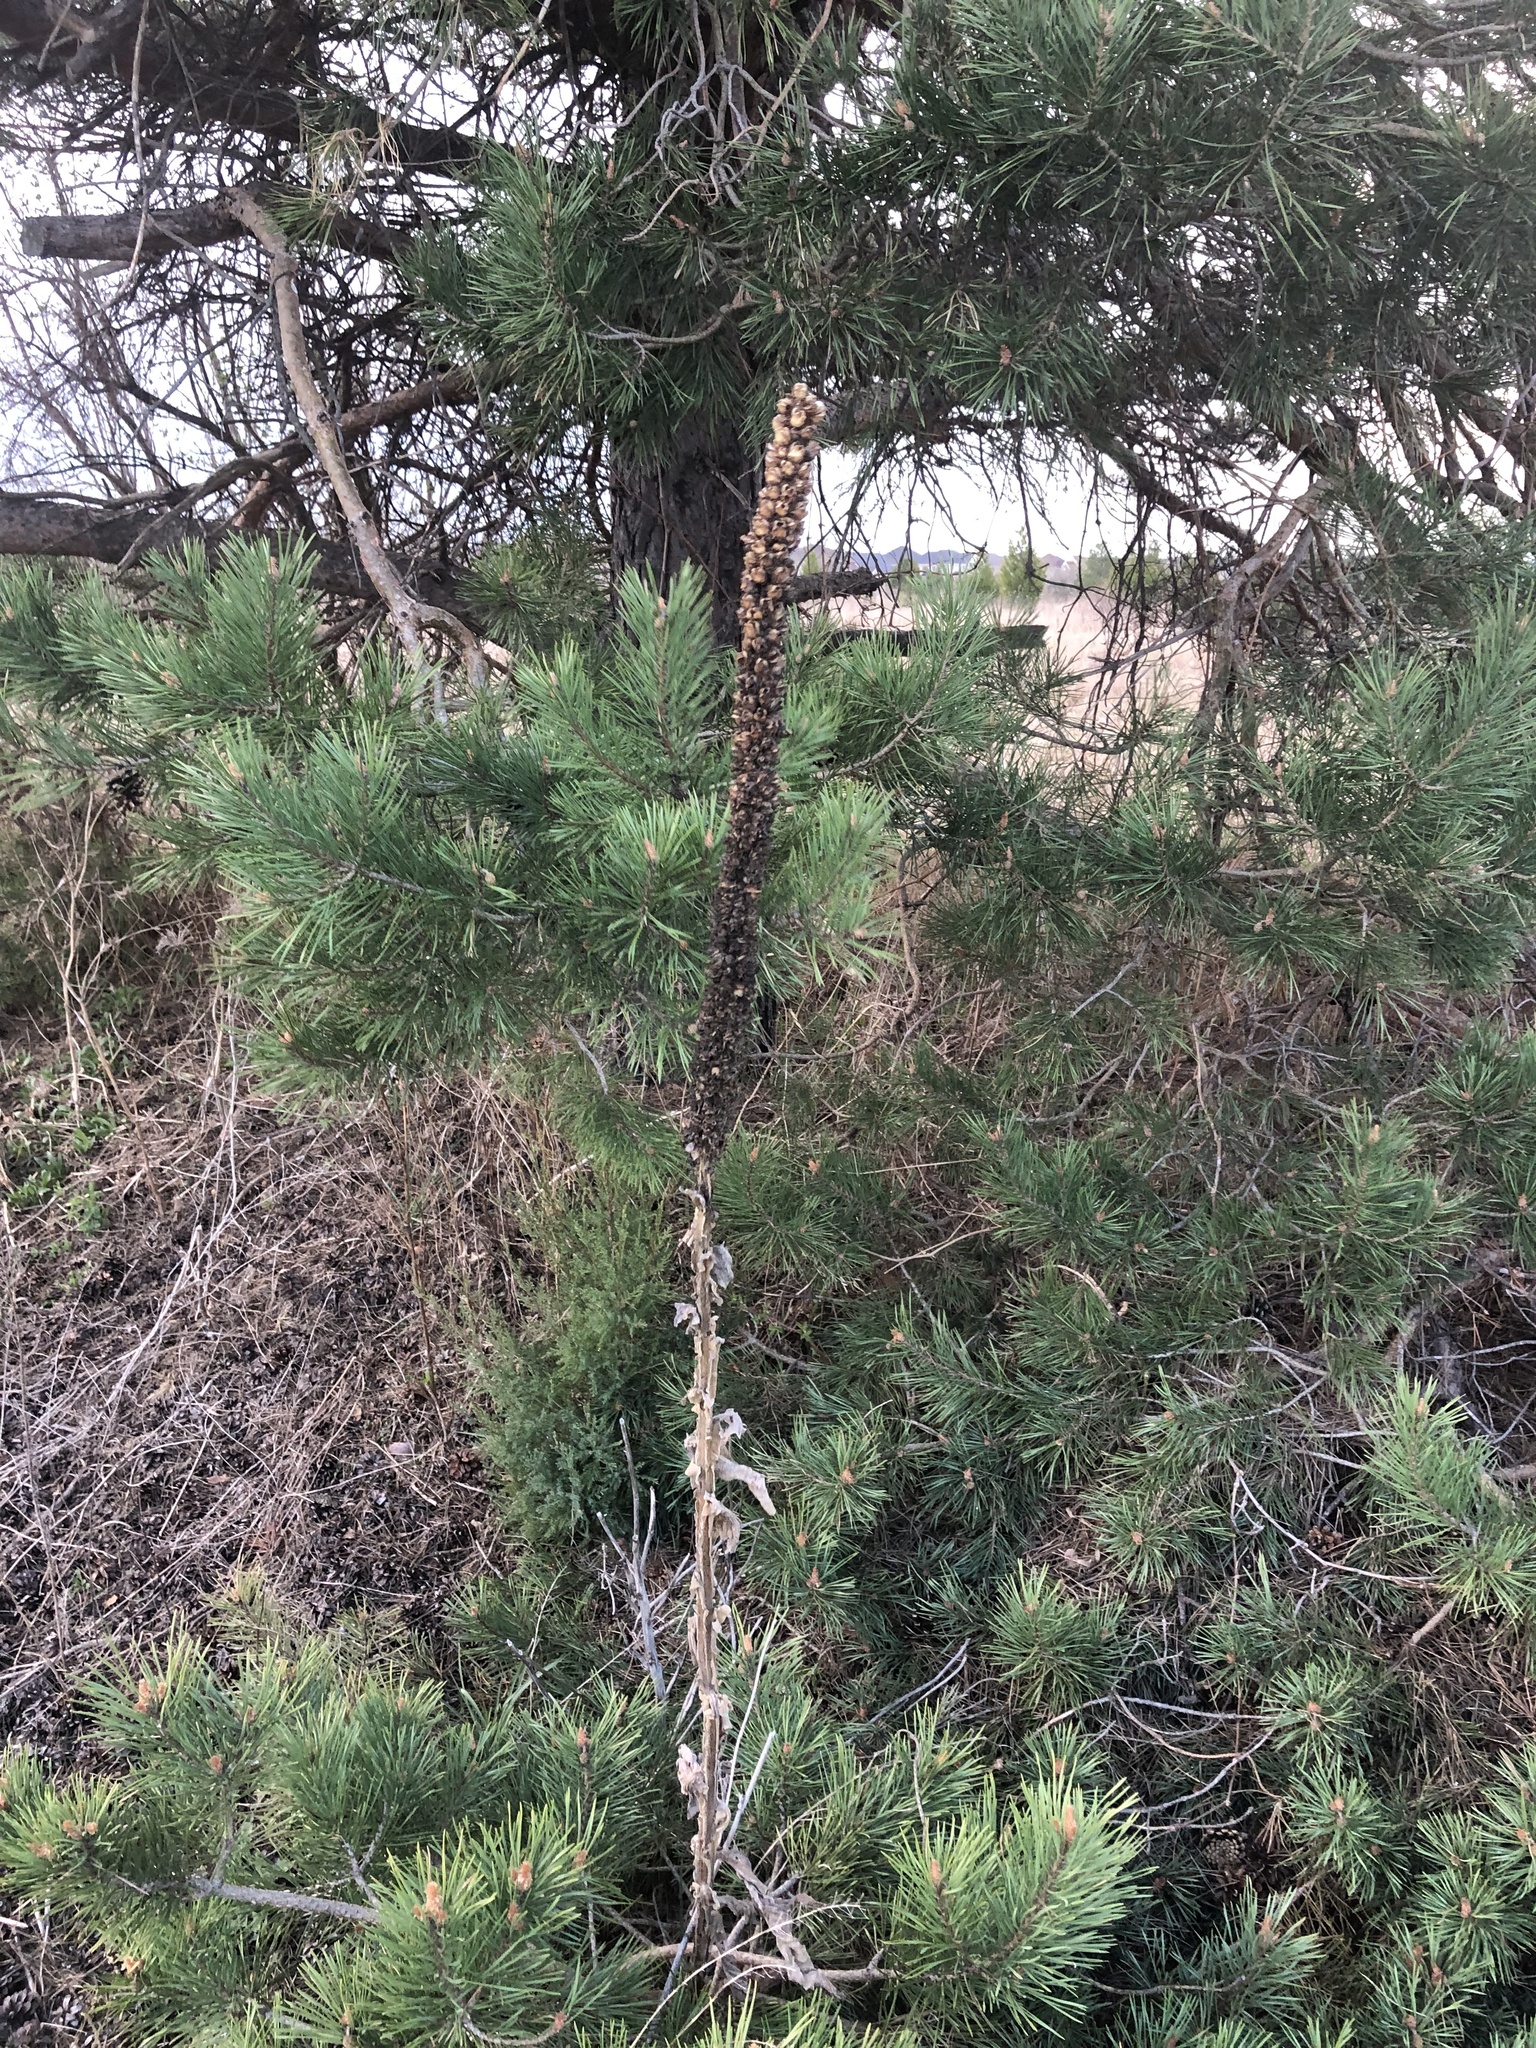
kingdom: Plantae
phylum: Tracheophyta
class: Magnoliopsida
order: Lamiales
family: Scrophulariaceae
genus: Verbascum
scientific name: Verbascum thapsus
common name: Common mullein
